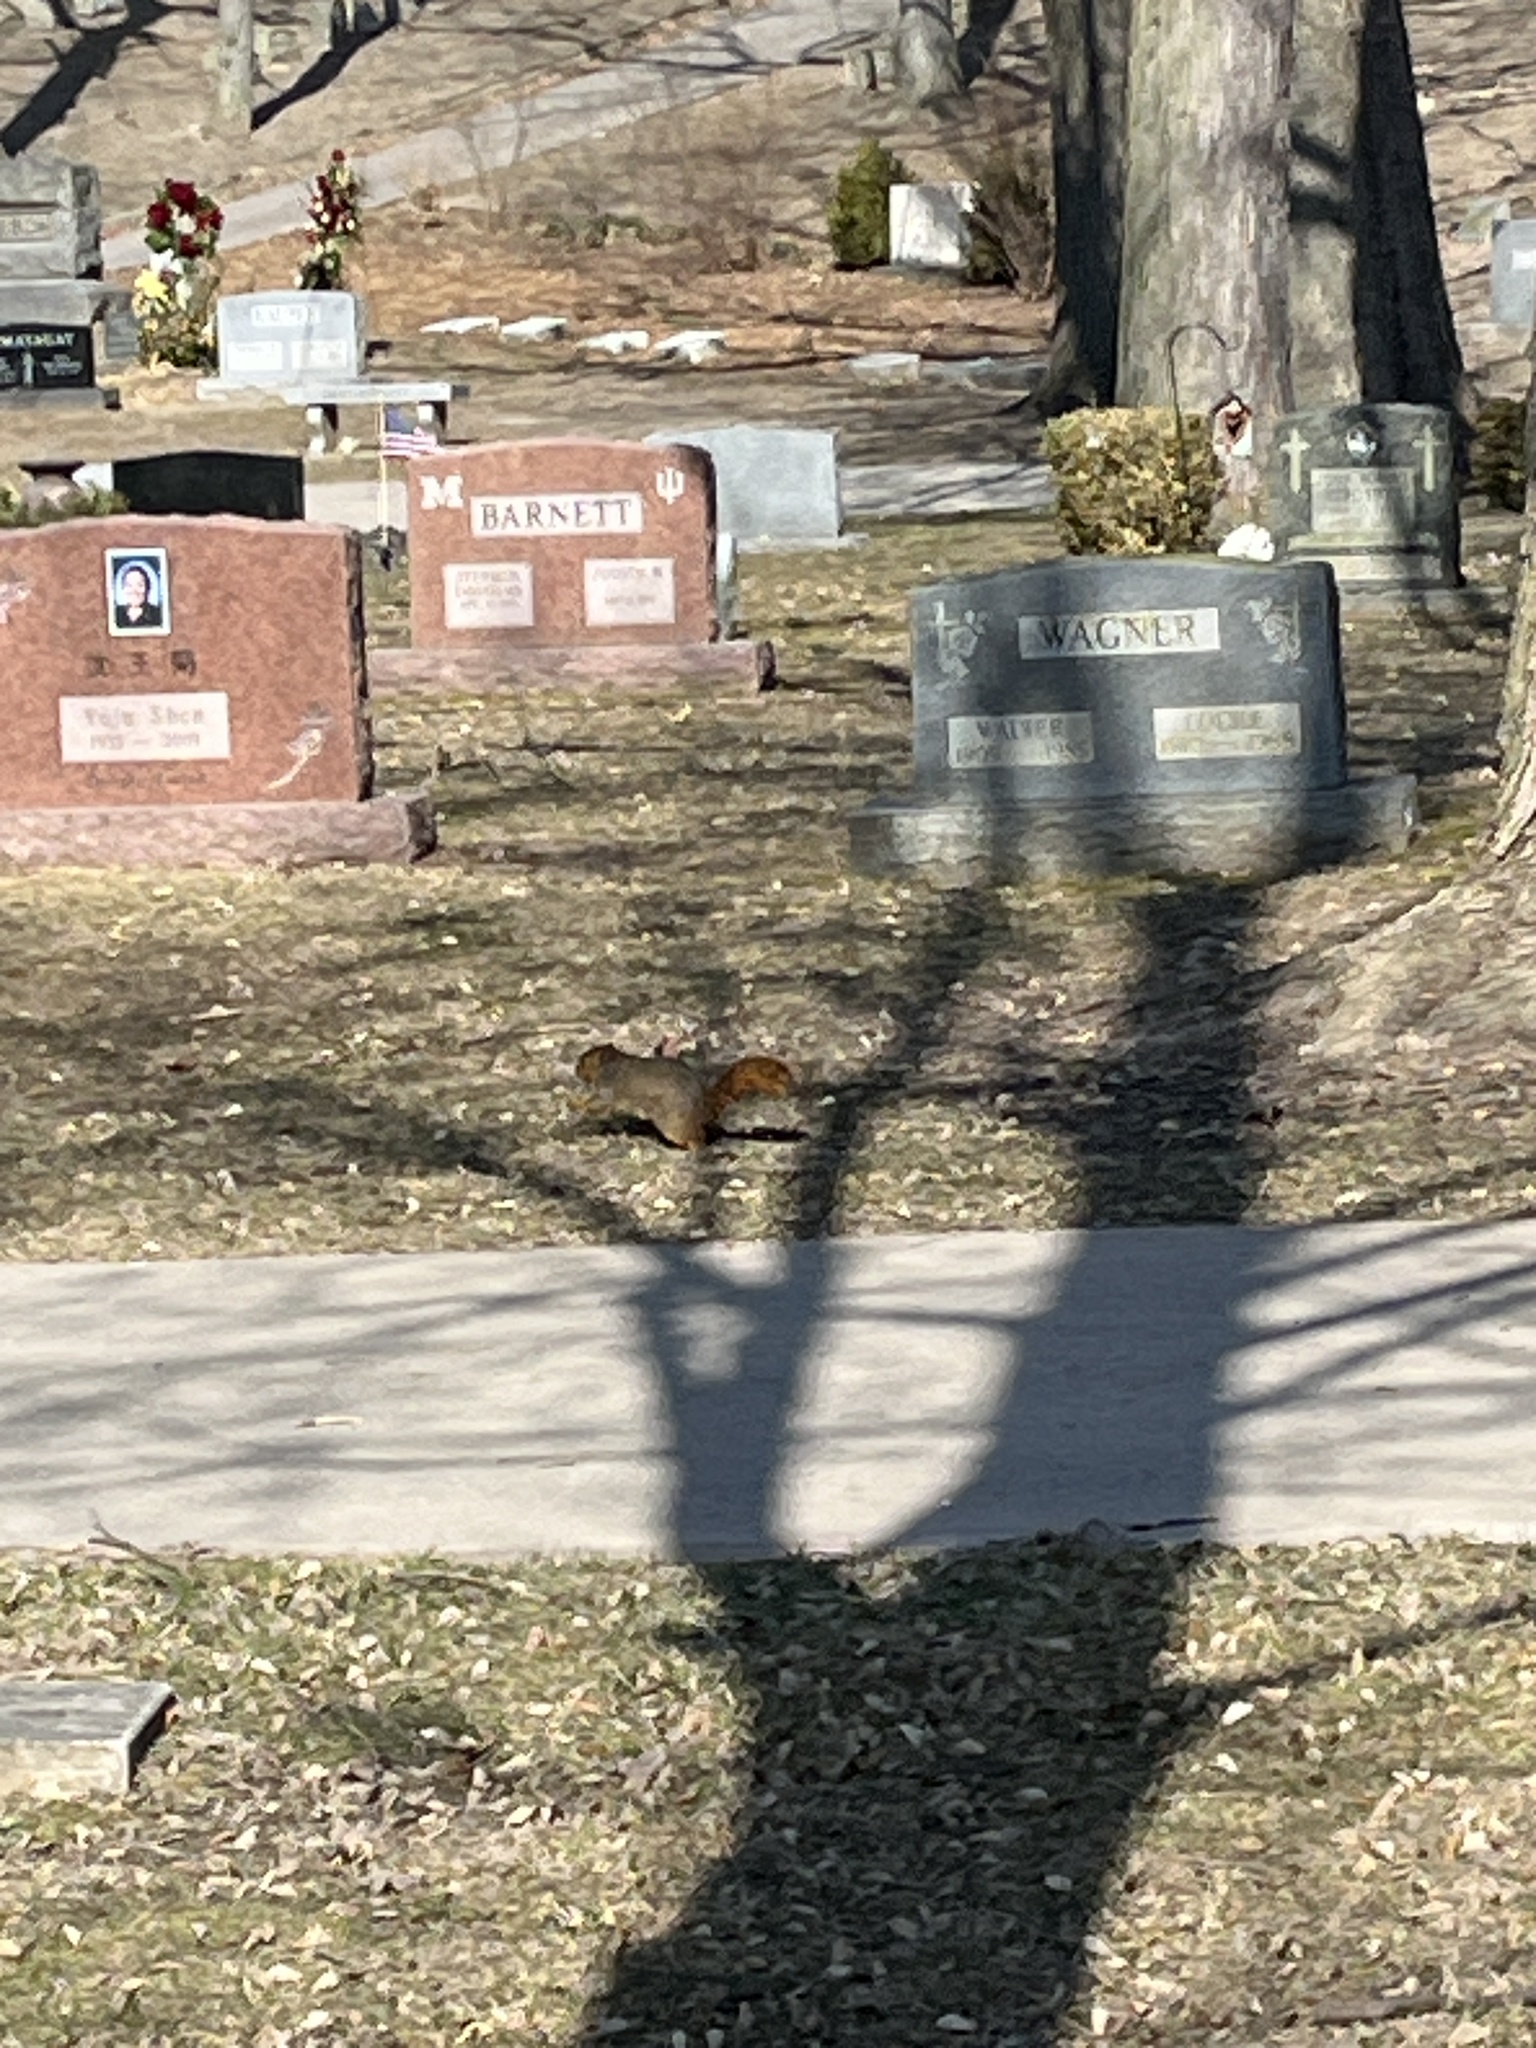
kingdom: Animalia
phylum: Chordata
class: Mammalia
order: Rodentia
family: Sciuridae
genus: Sciurus
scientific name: Sciurus niger
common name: Fox squirrel
